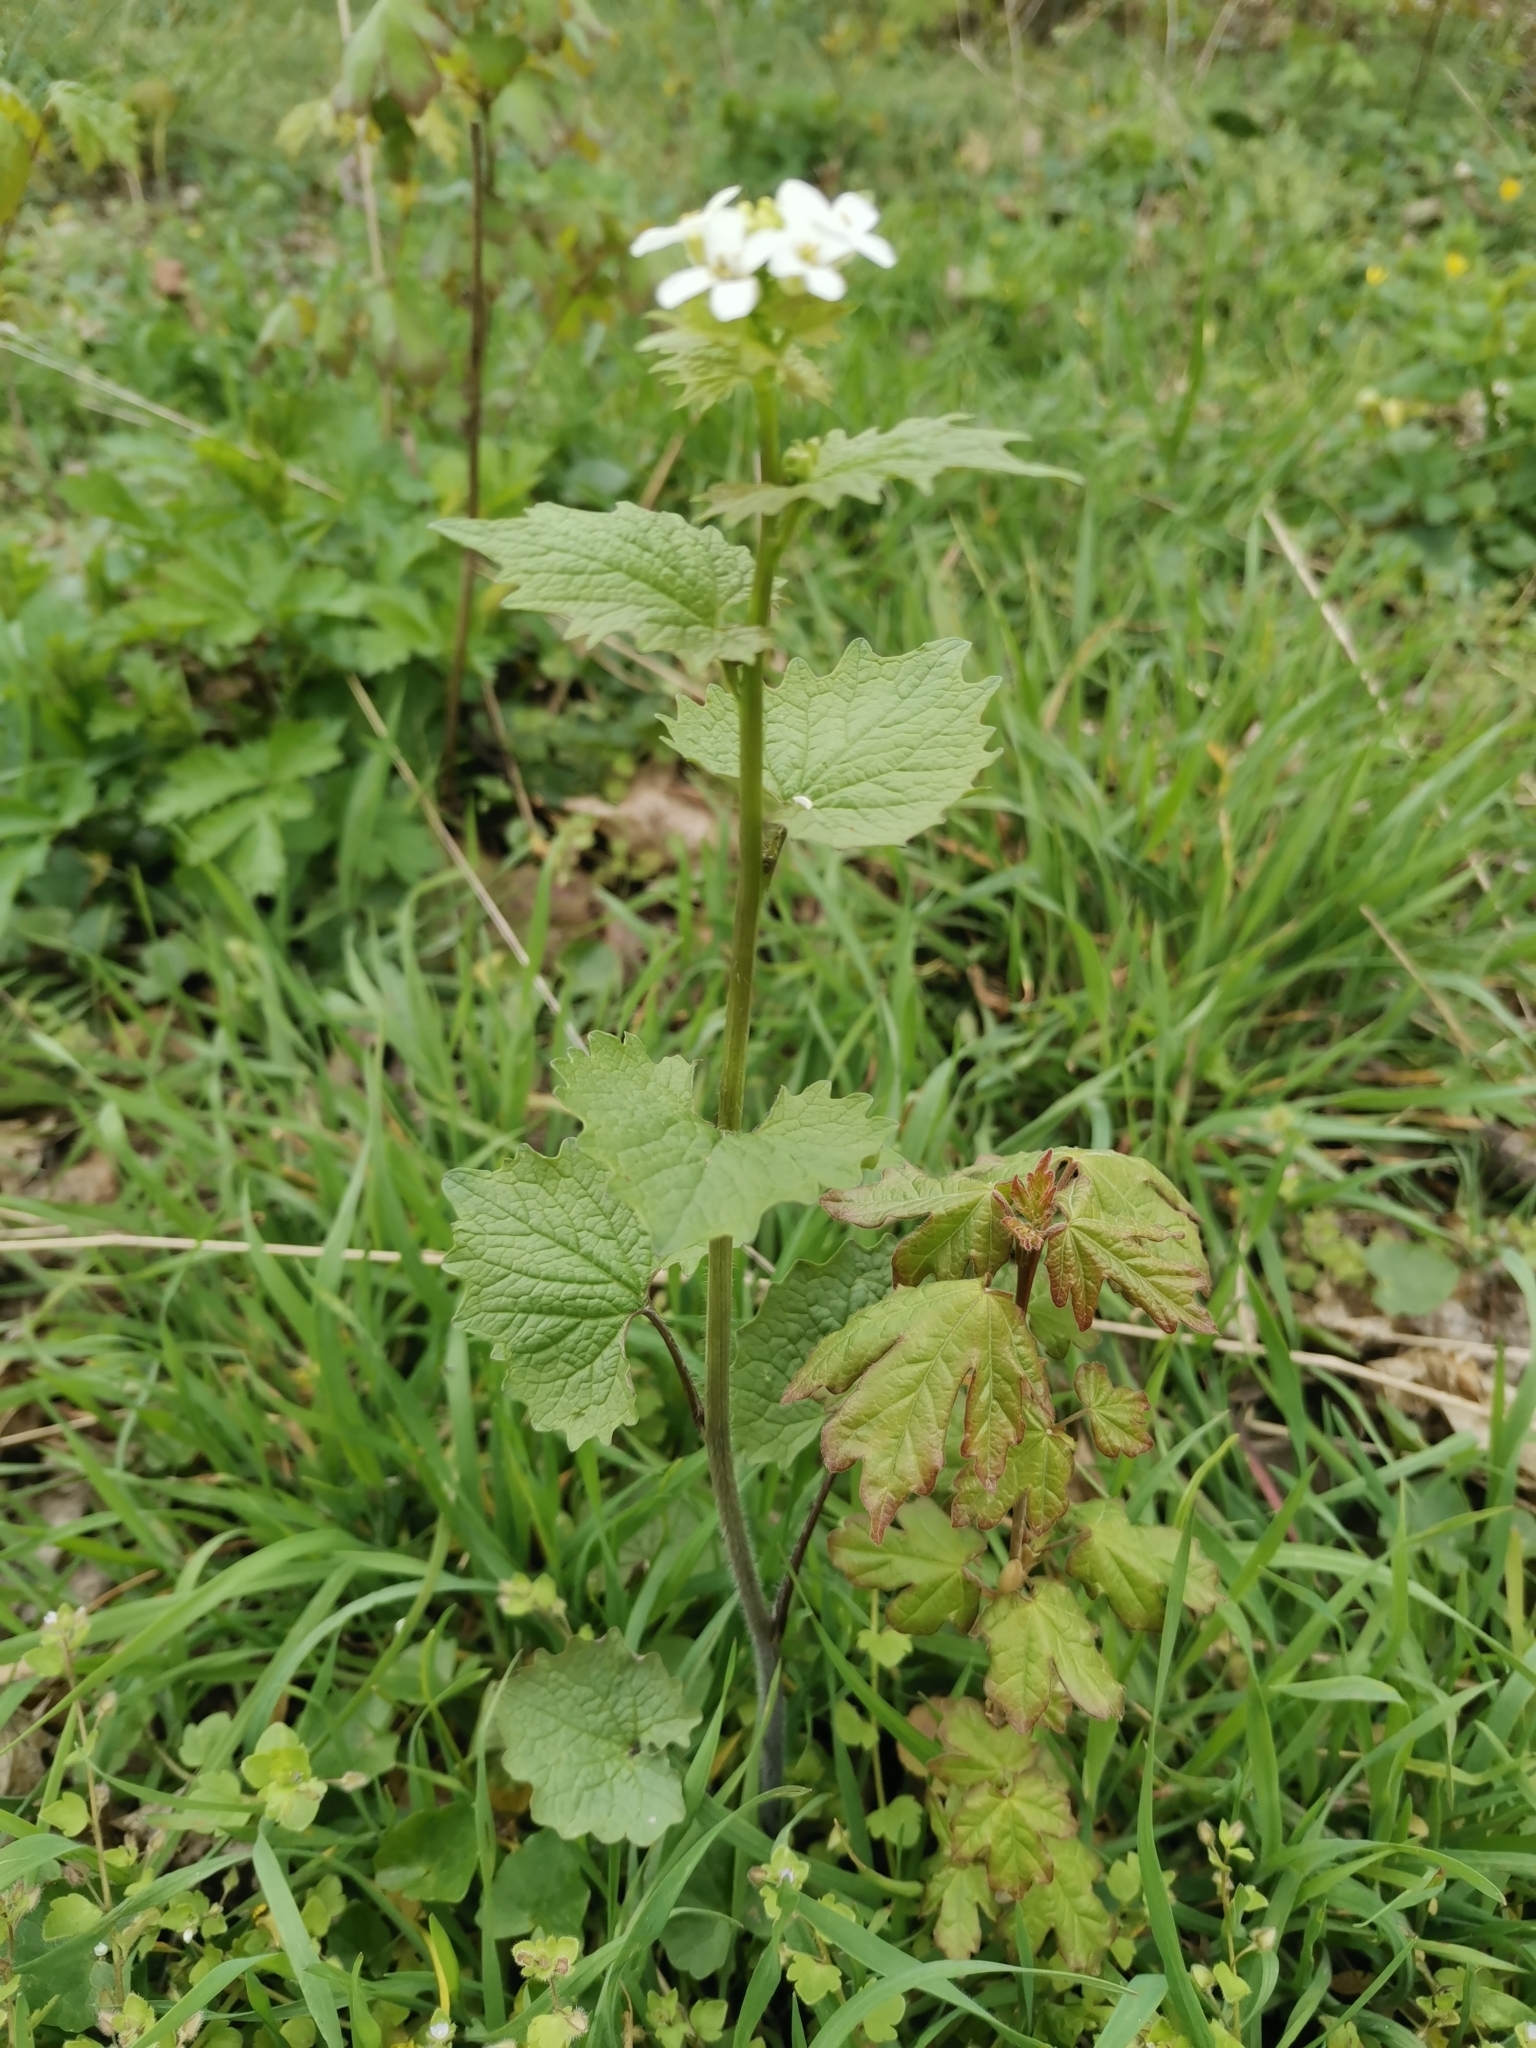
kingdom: Plantae
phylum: Tracheophyta
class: Magnoliopsida
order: Brassicales
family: Brassicaceae
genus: Alliaria
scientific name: Alliaria petiolata
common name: Garlic mustard
